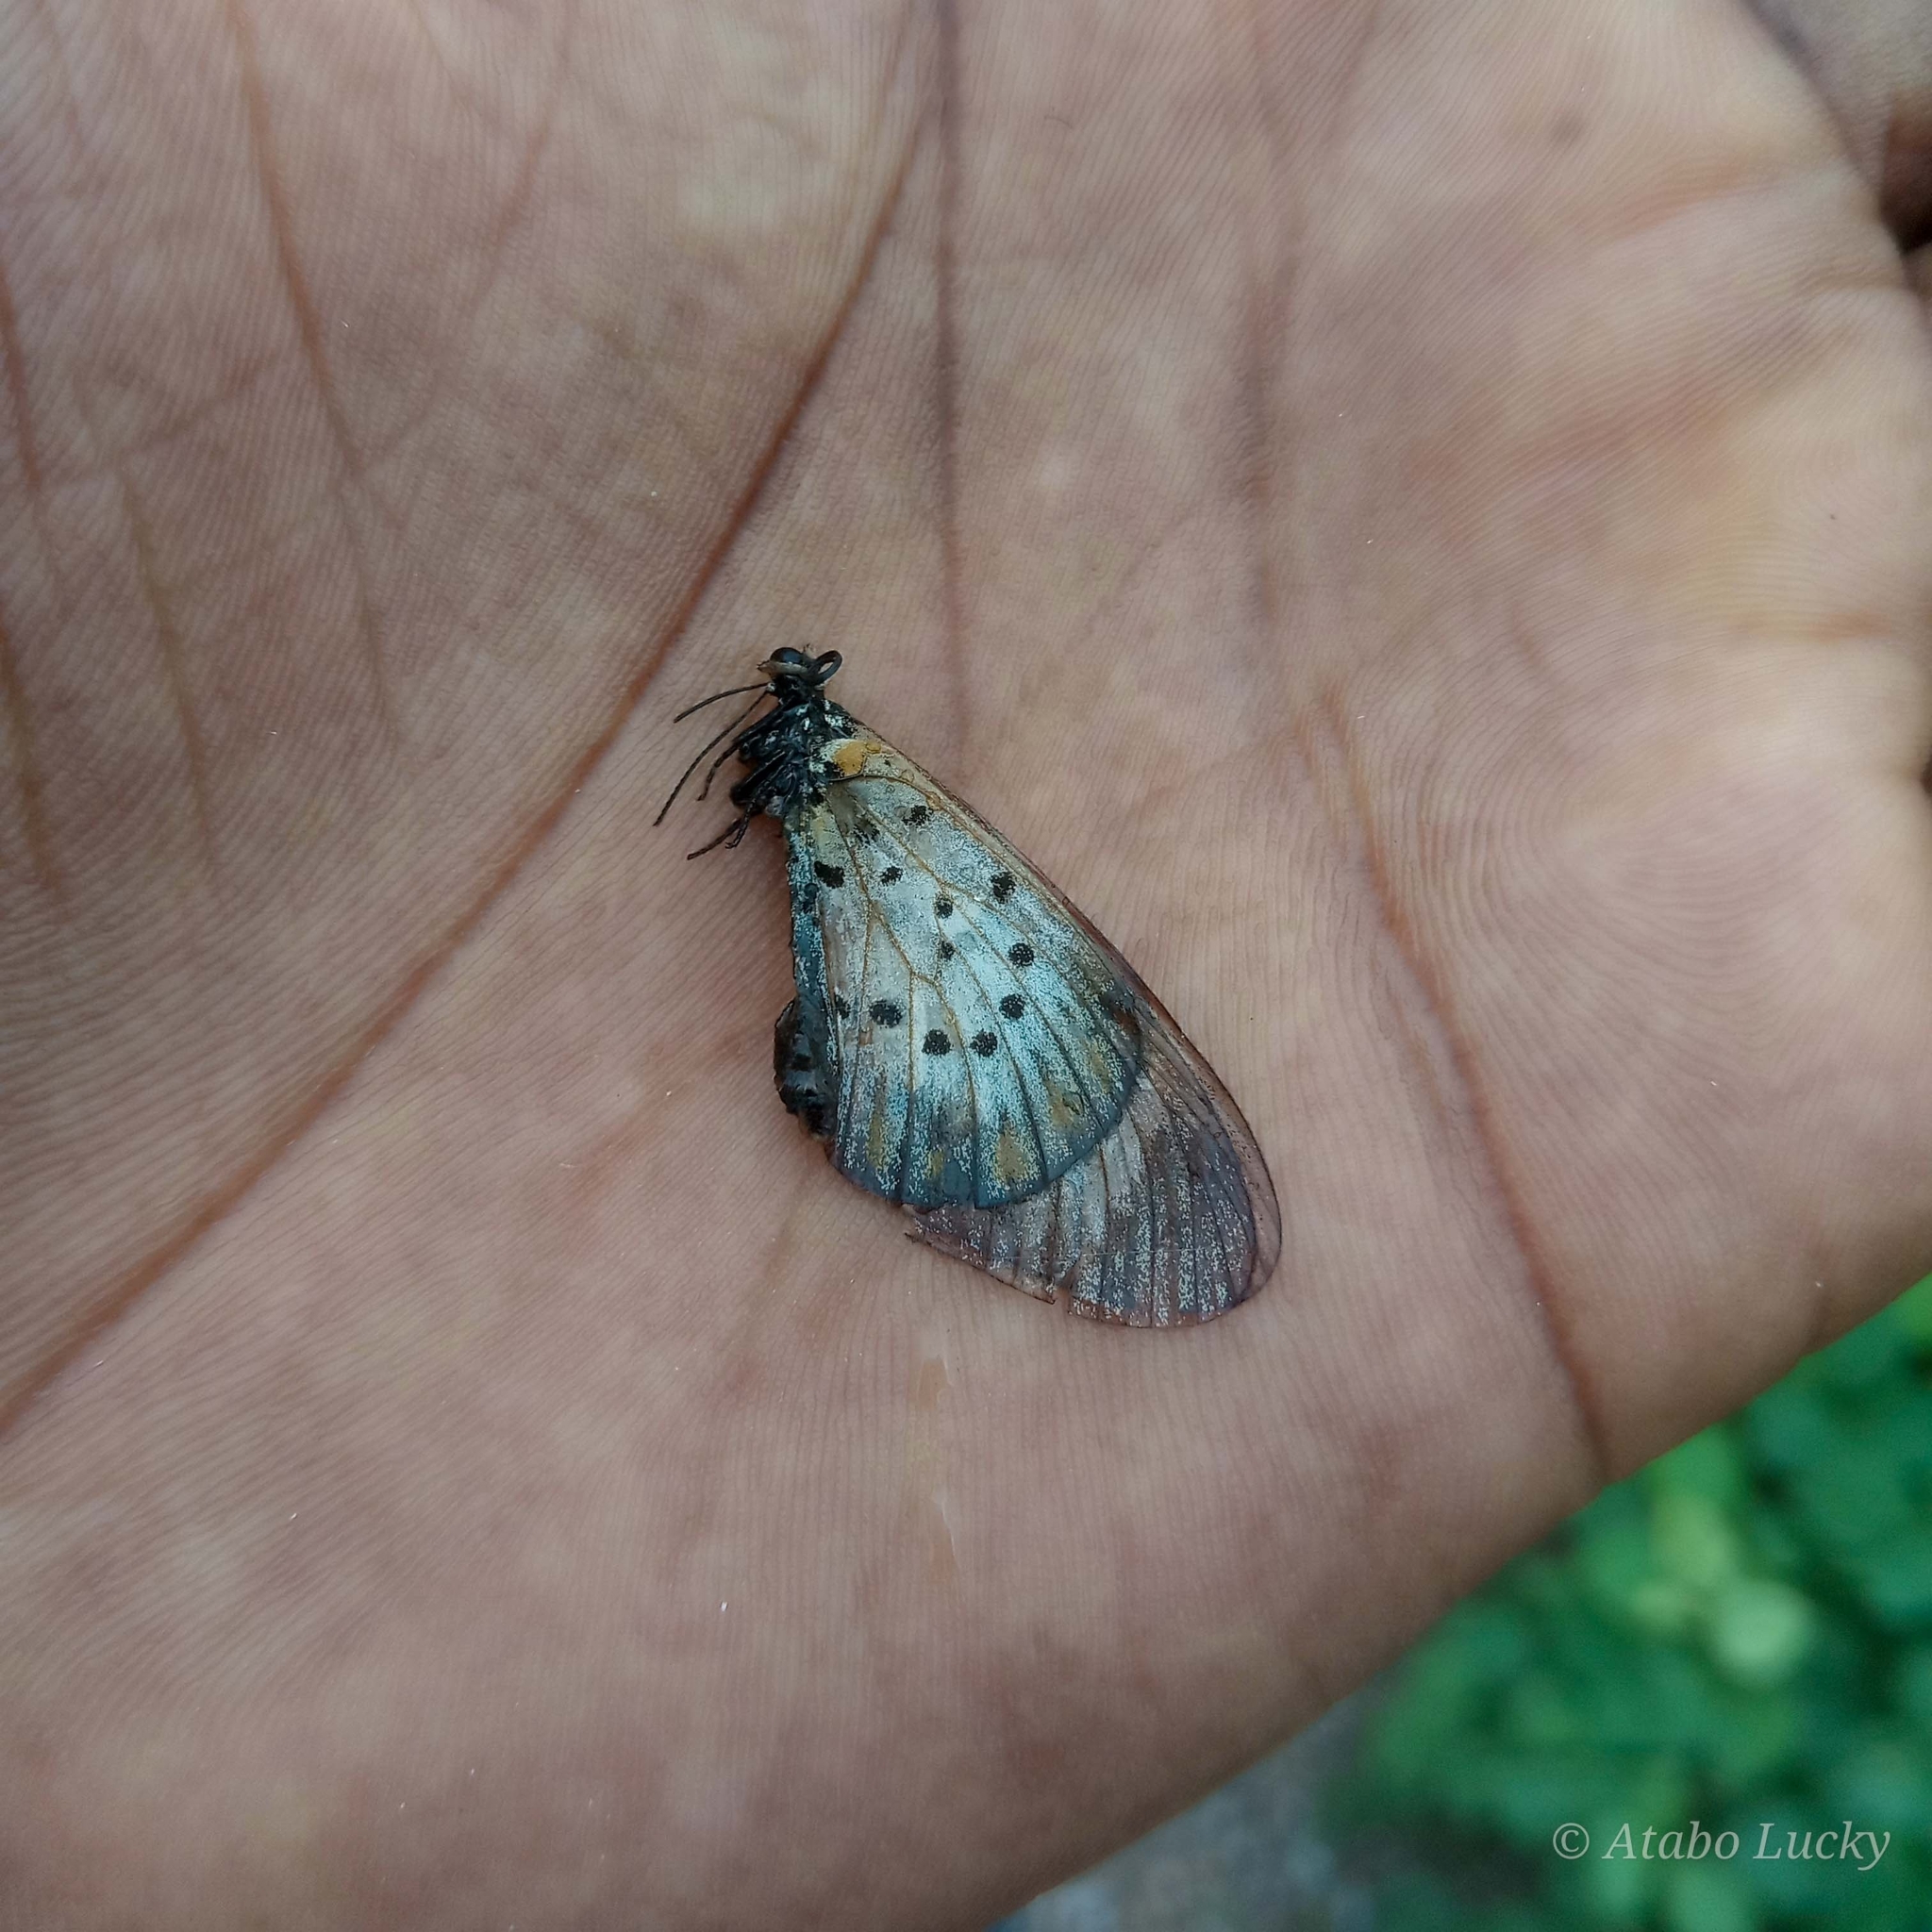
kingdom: Animalia
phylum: Arthropoda
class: Insecta
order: Lepidoptera
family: Nymphalidae
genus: Acraea
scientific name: Acraea Telchinia encedon
